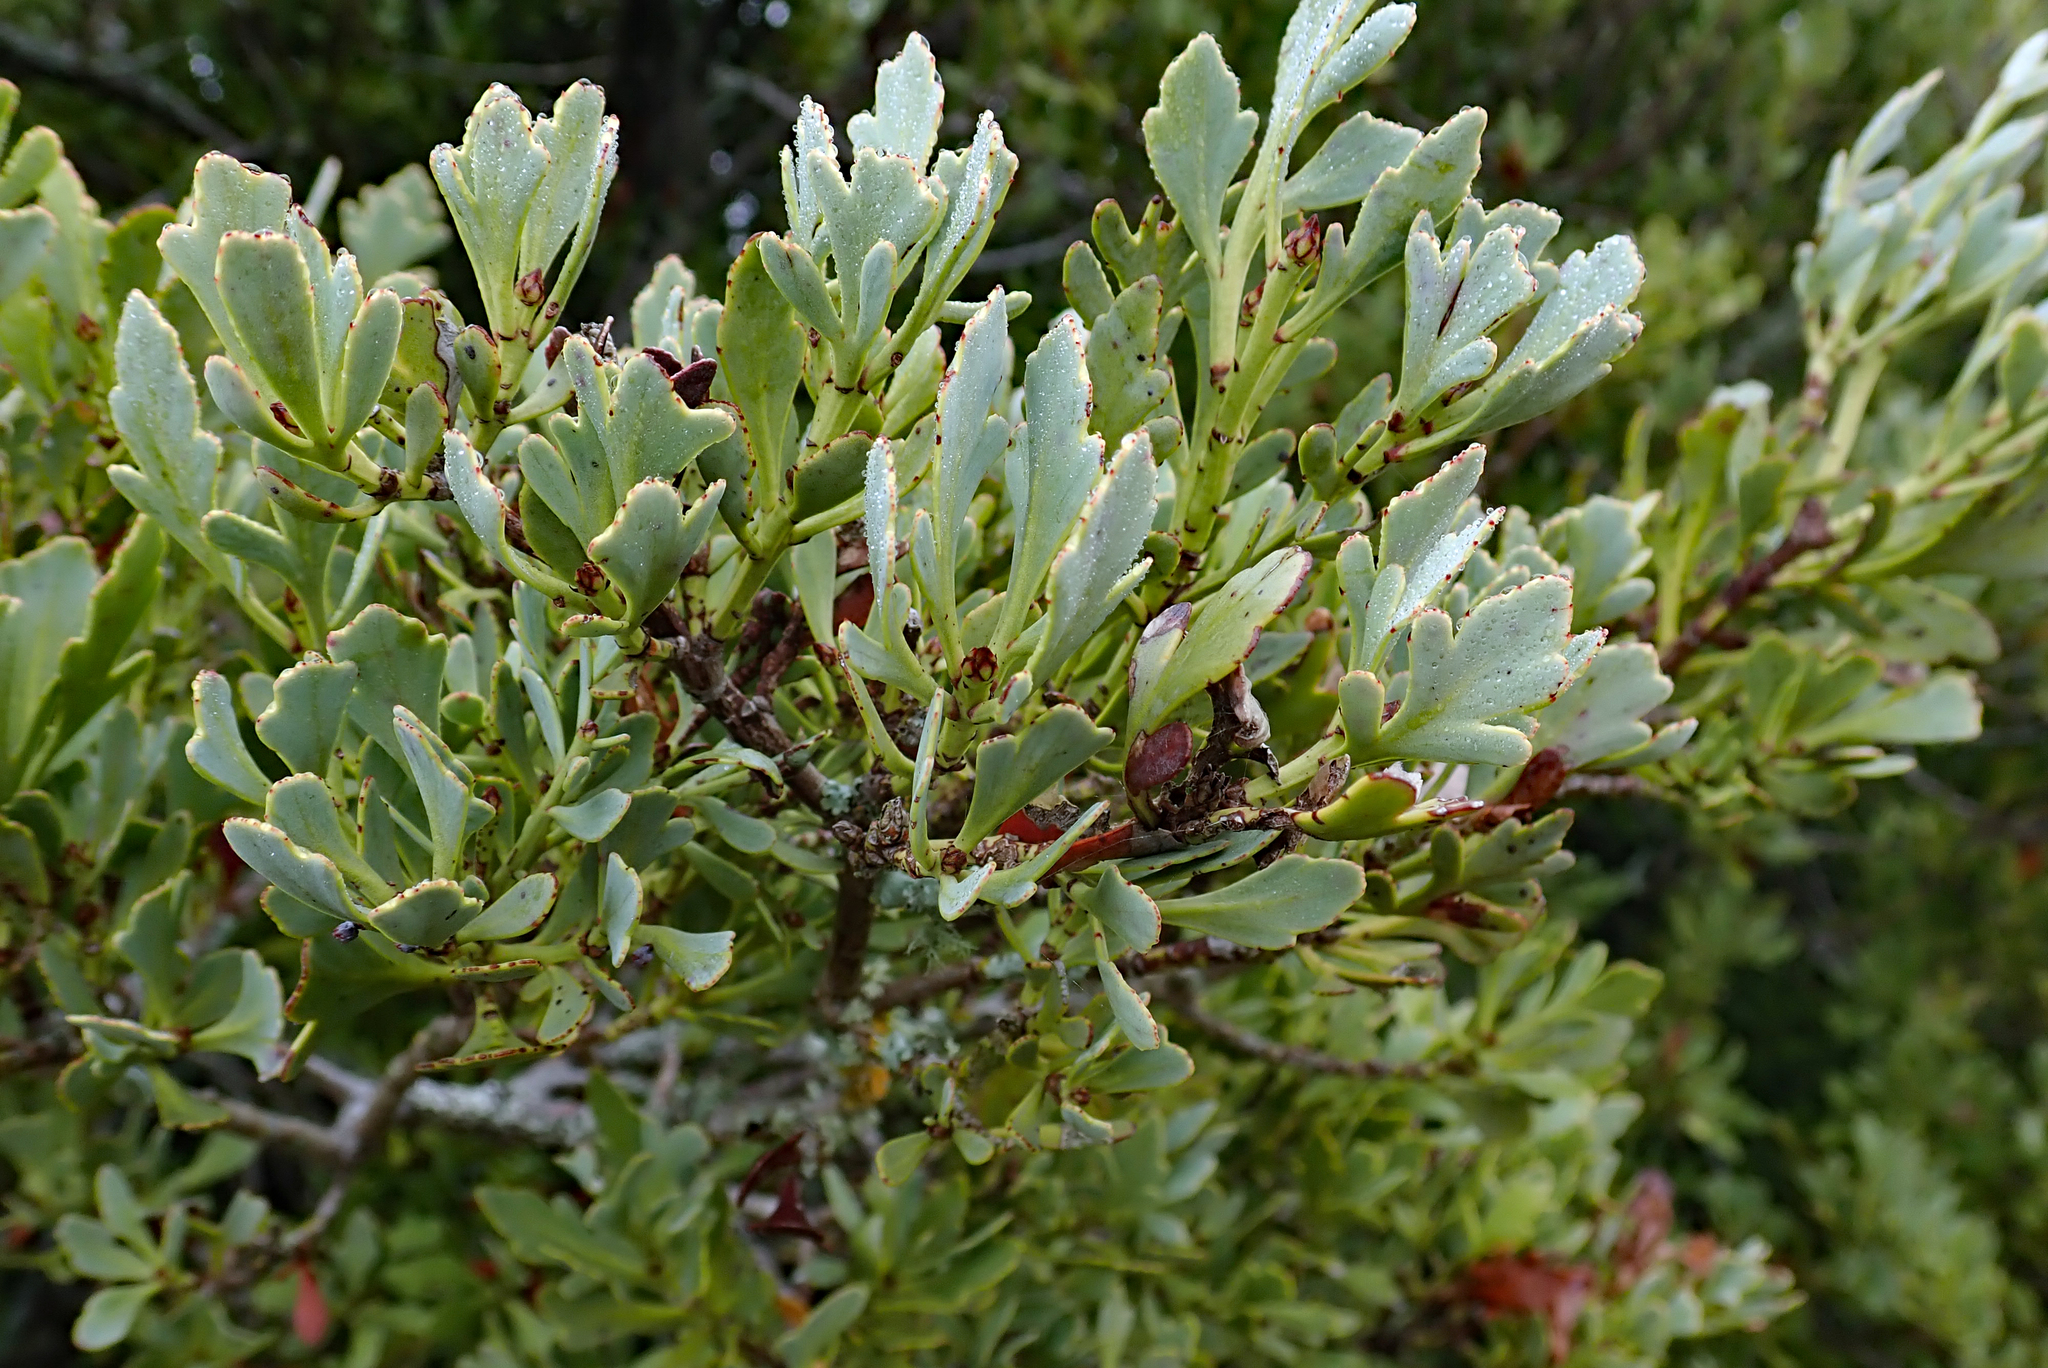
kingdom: Plantae
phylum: Tracheophyta
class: Pinopsida
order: Pinales
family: Phyllocladaceae
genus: Phyllocladus
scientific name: Phyllocladus trichomanoides
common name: Celery pine
